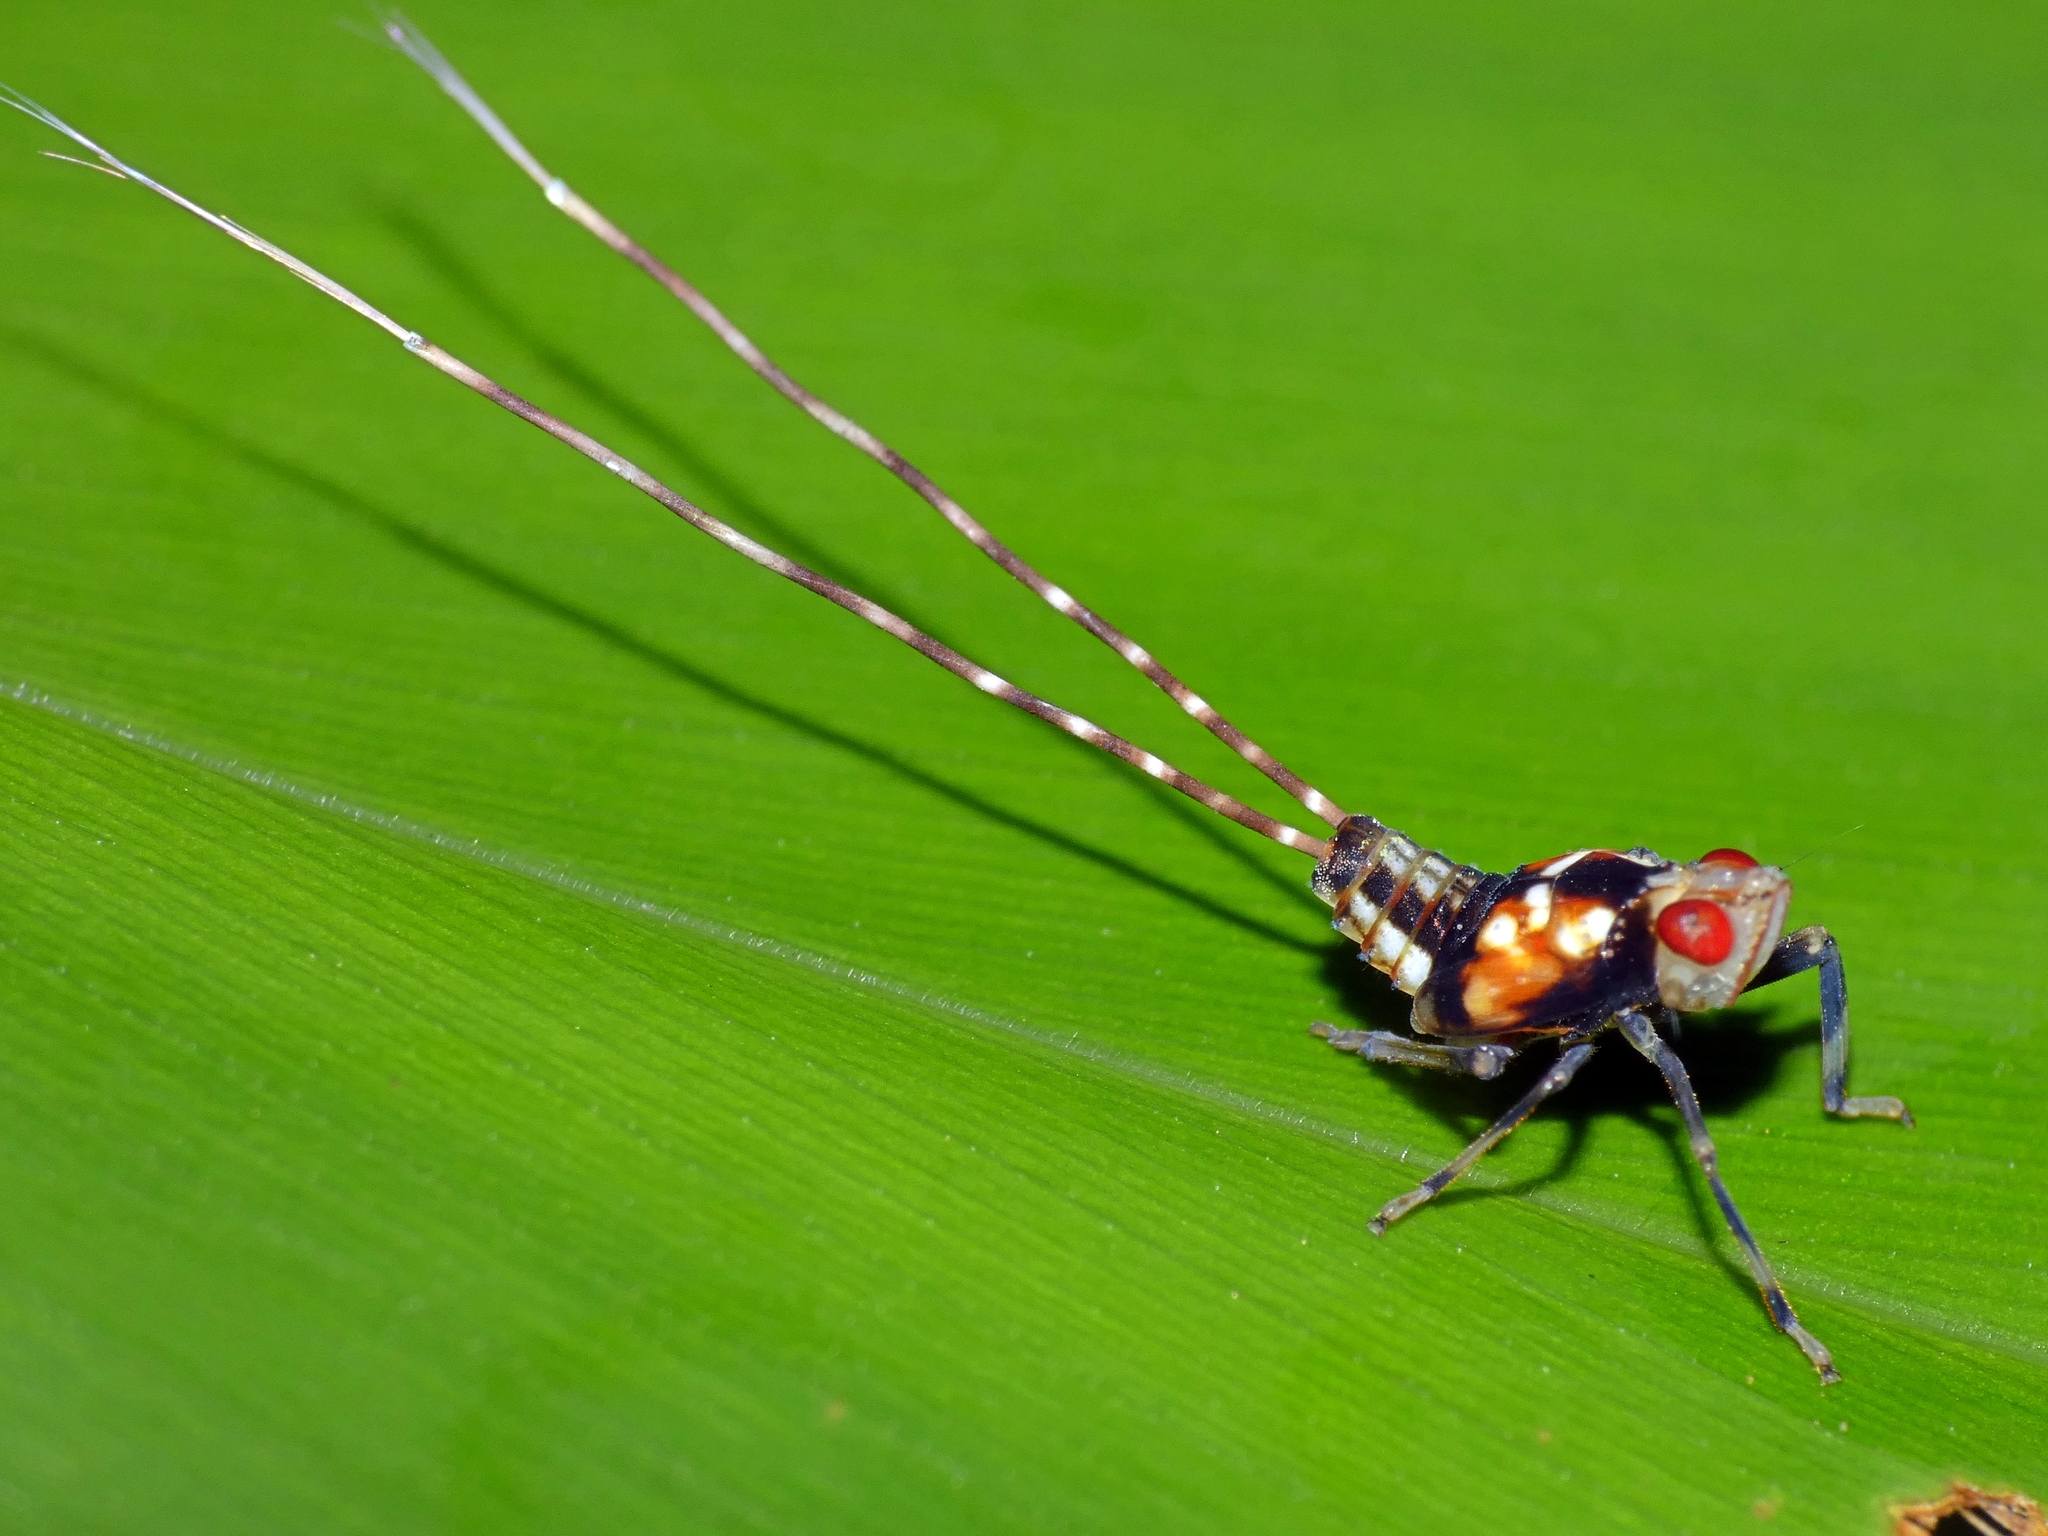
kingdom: Animalia
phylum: Arthropoda
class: Insecta
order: Hemiptera
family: Lophopidae
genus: Magia
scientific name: Magia subocellata
